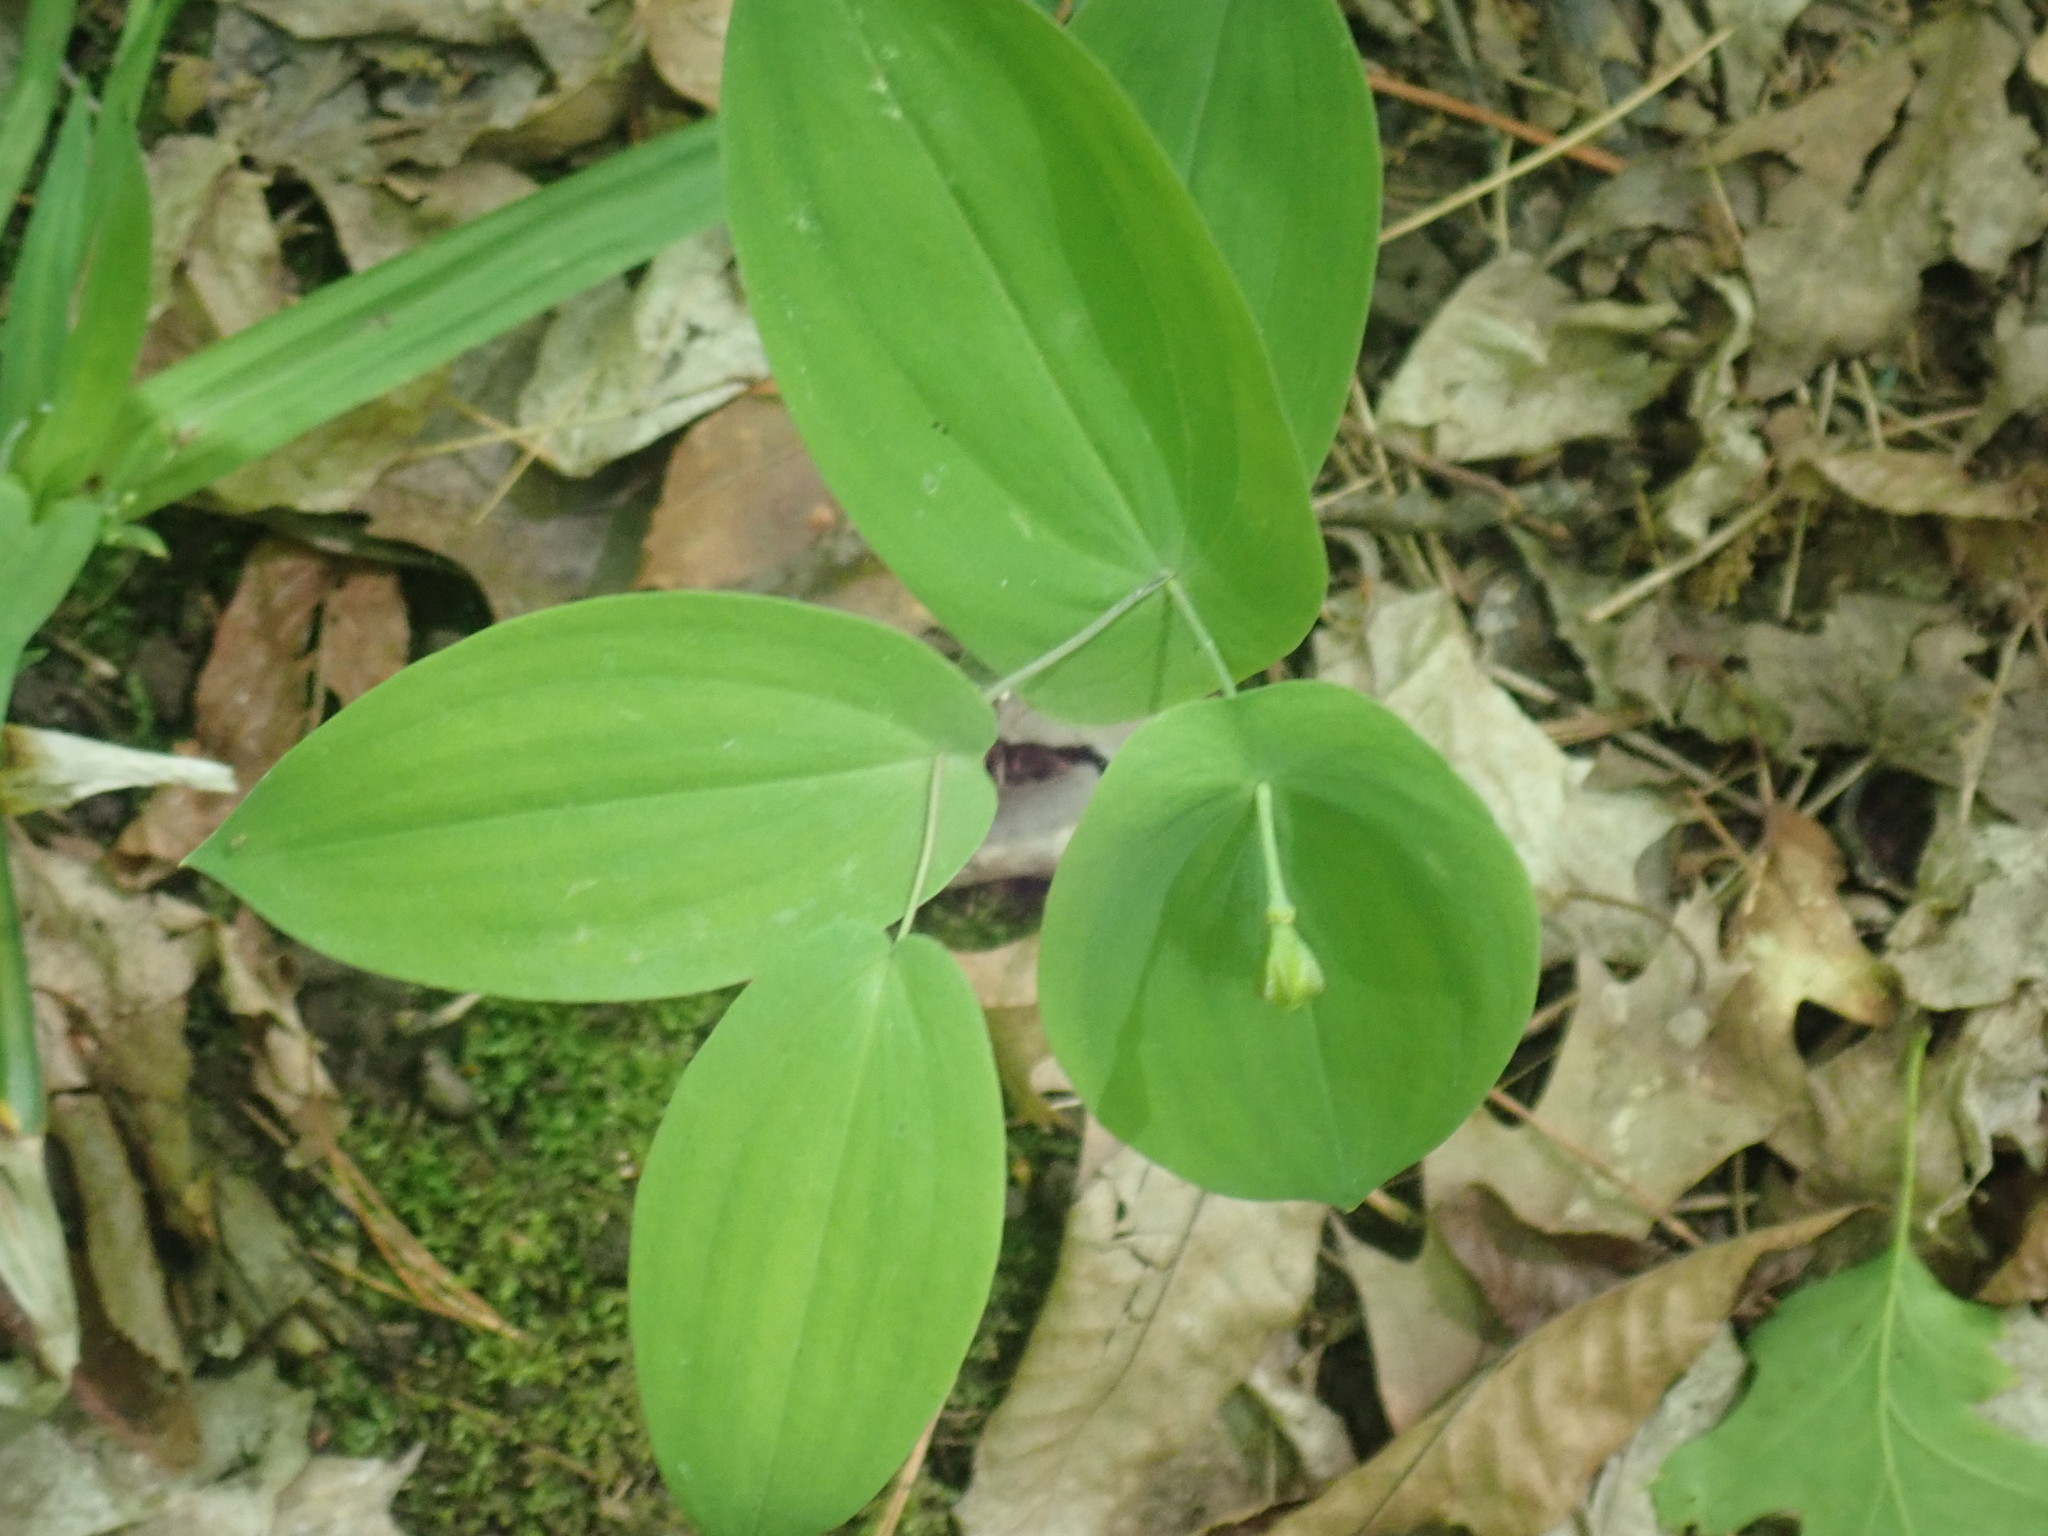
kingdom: Plantae
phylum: Tracheophyta
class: Liliopsida
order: Liliales
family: Colchicaceae
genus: Uvularia
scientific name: Uvularia perfoliata
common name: Perfoliate bellwort
